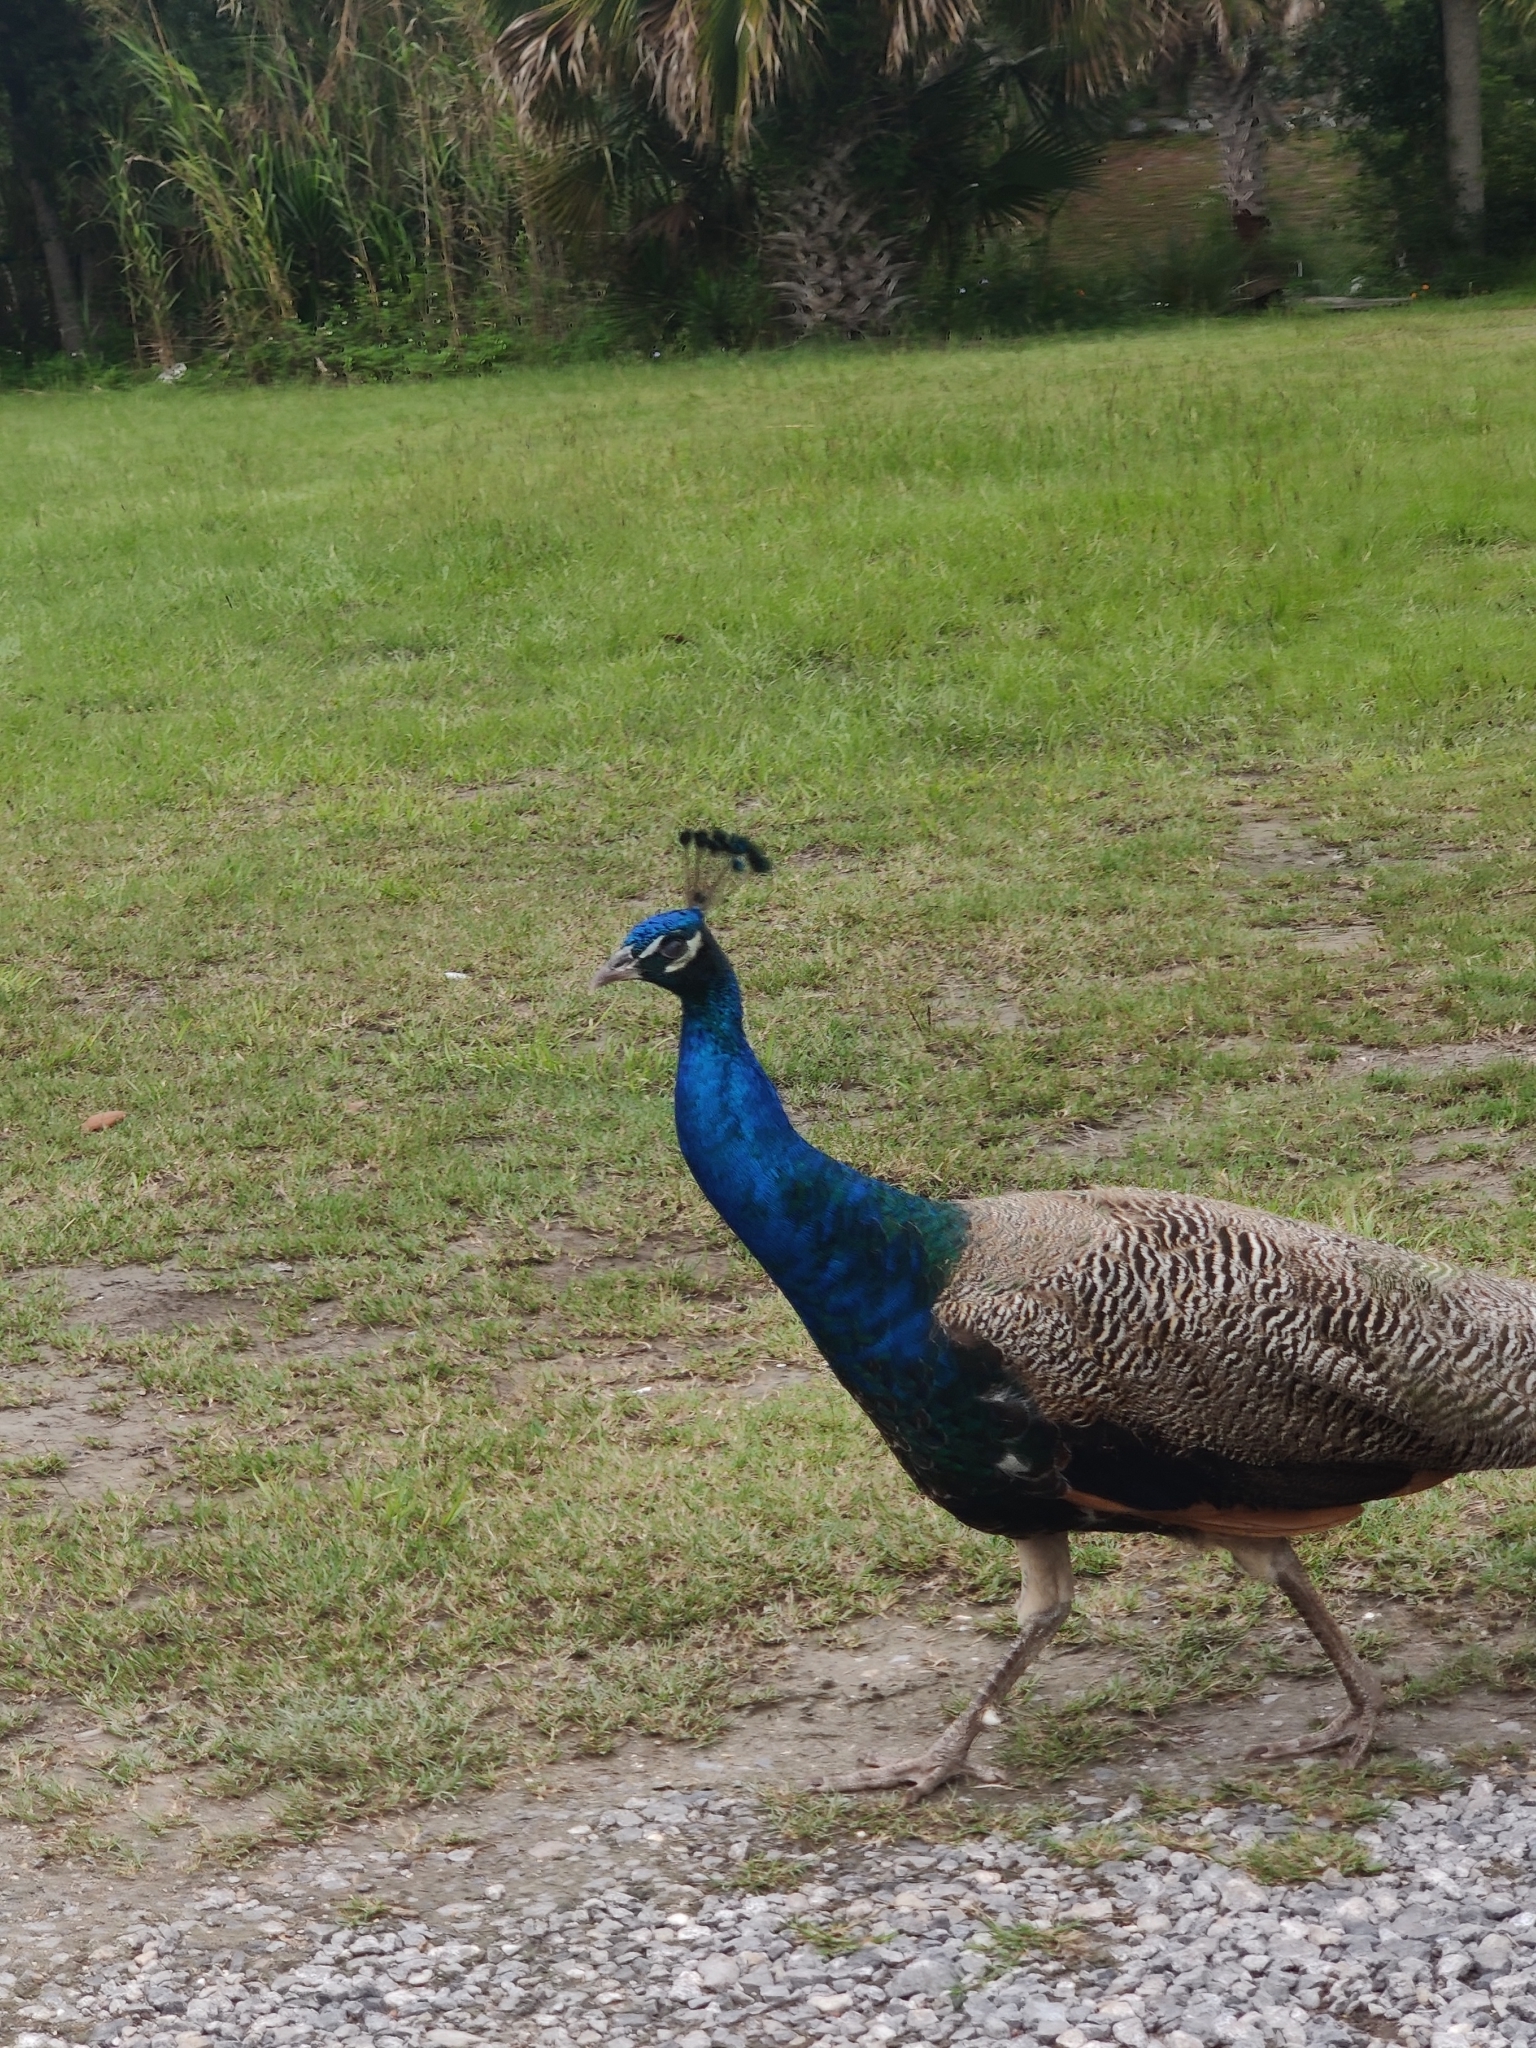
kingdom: Animalia
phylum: Chordata
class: Aves
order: Galliformes
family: Phasianidae
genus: Pavo
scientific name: Pavo cristatus
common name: Indian peafowl
